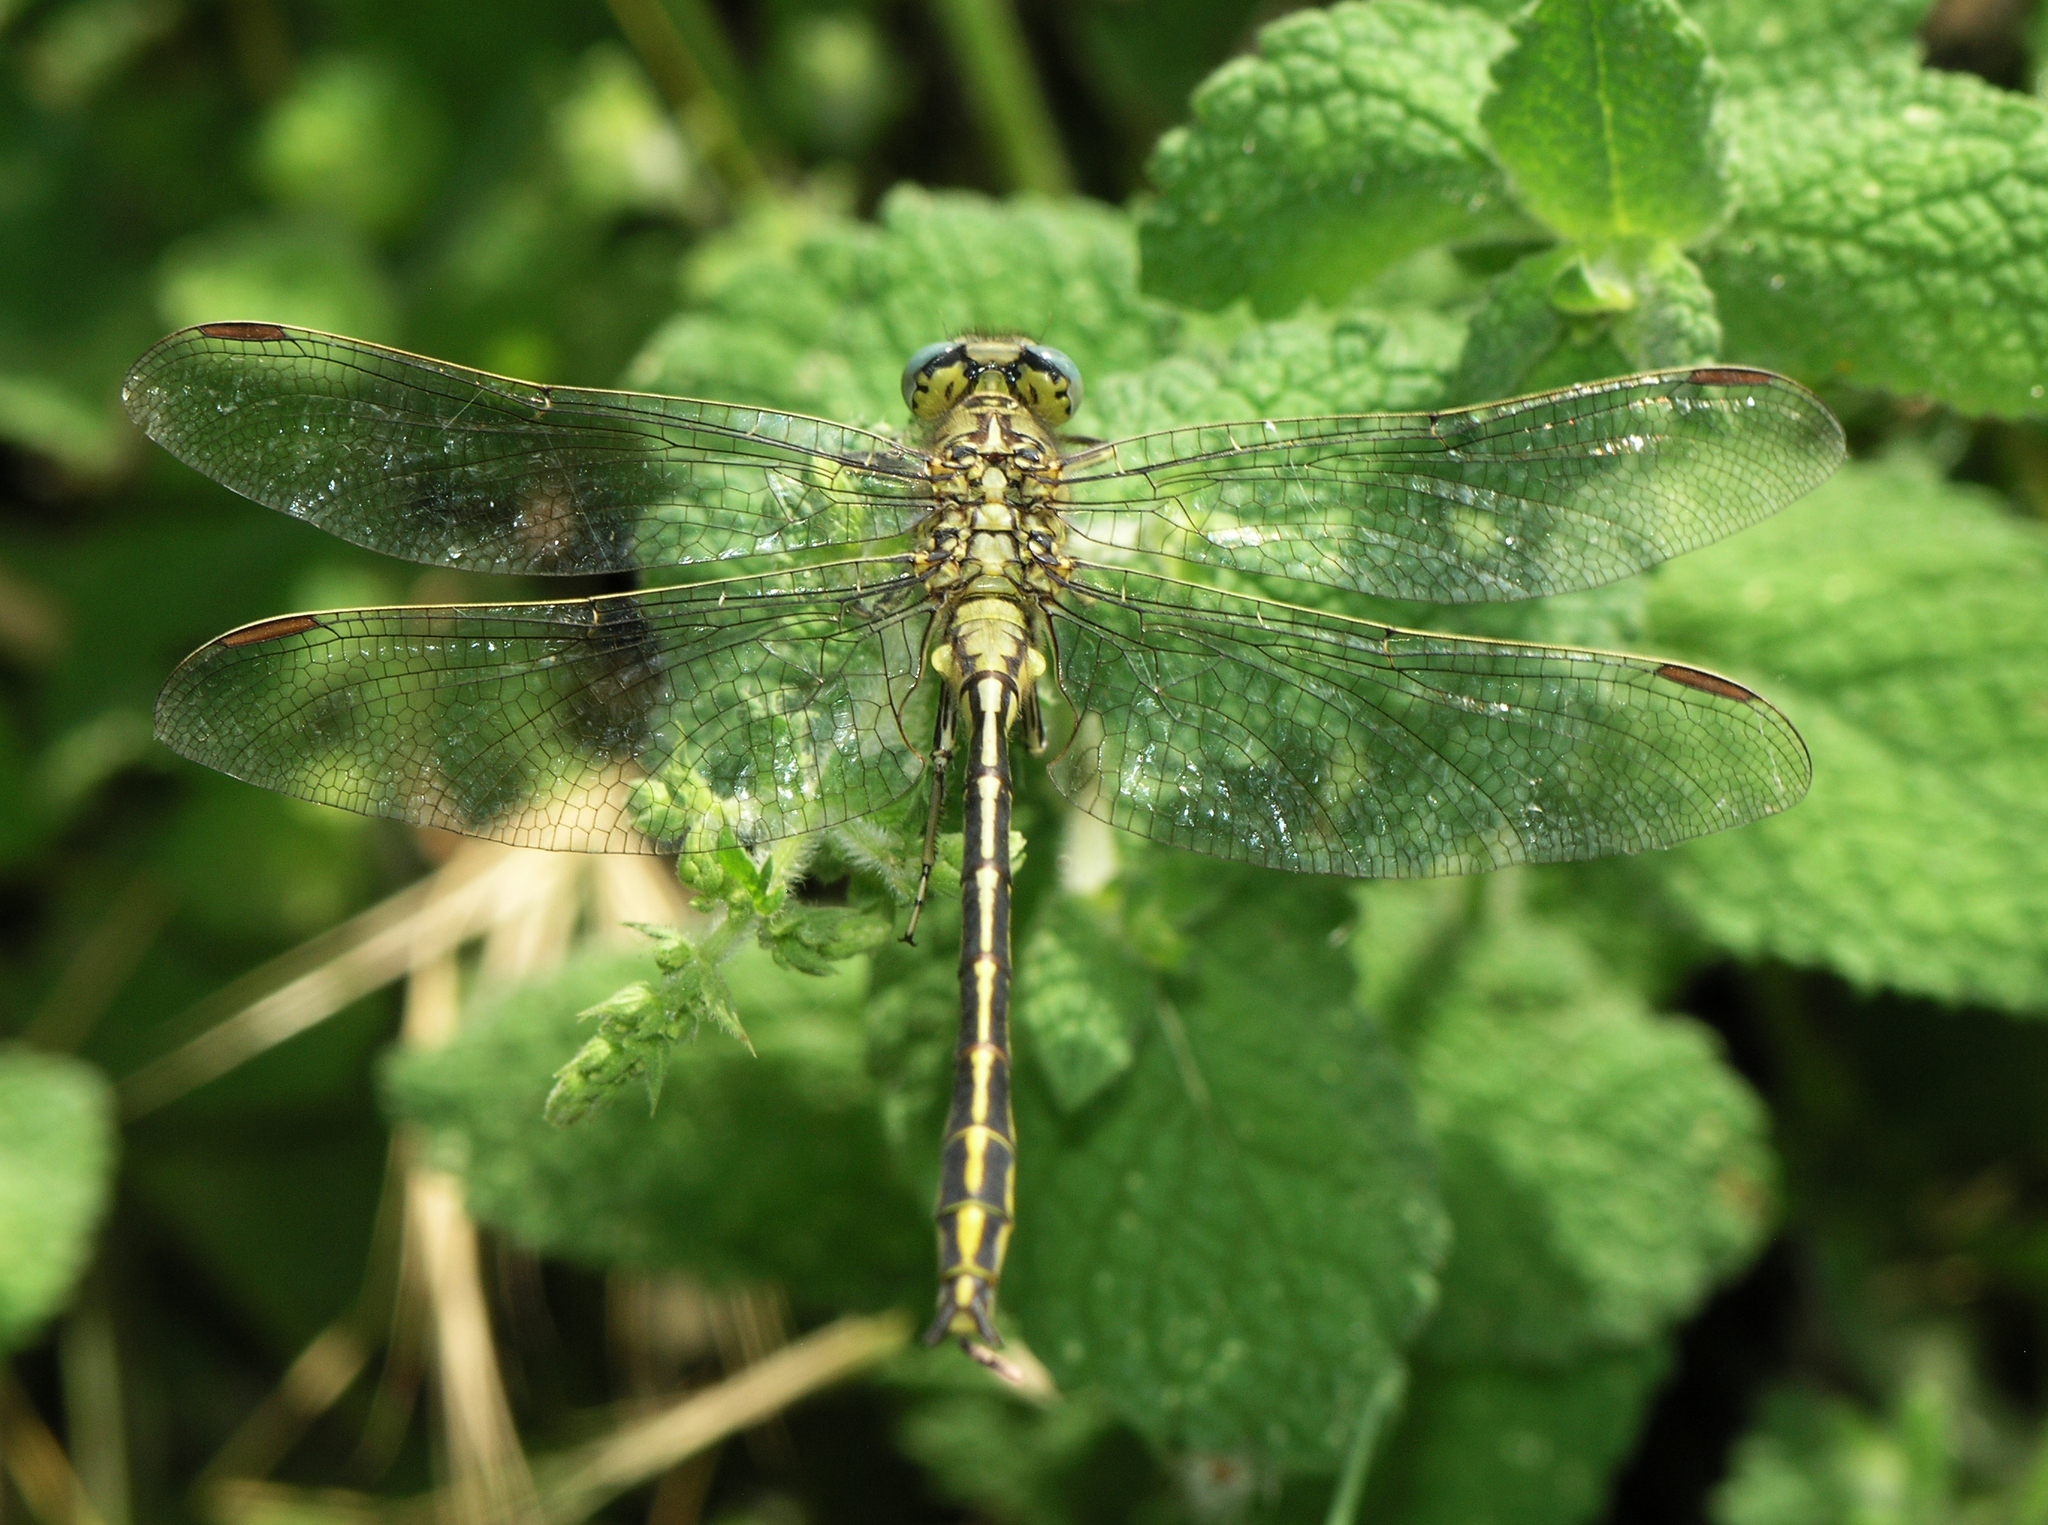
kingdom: Animalia
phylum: Arthropoda
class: Insecta
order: Odonata
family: Gomphidae
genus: Gomphus
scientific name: Gomphus pulchellus
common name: Western clubtail
